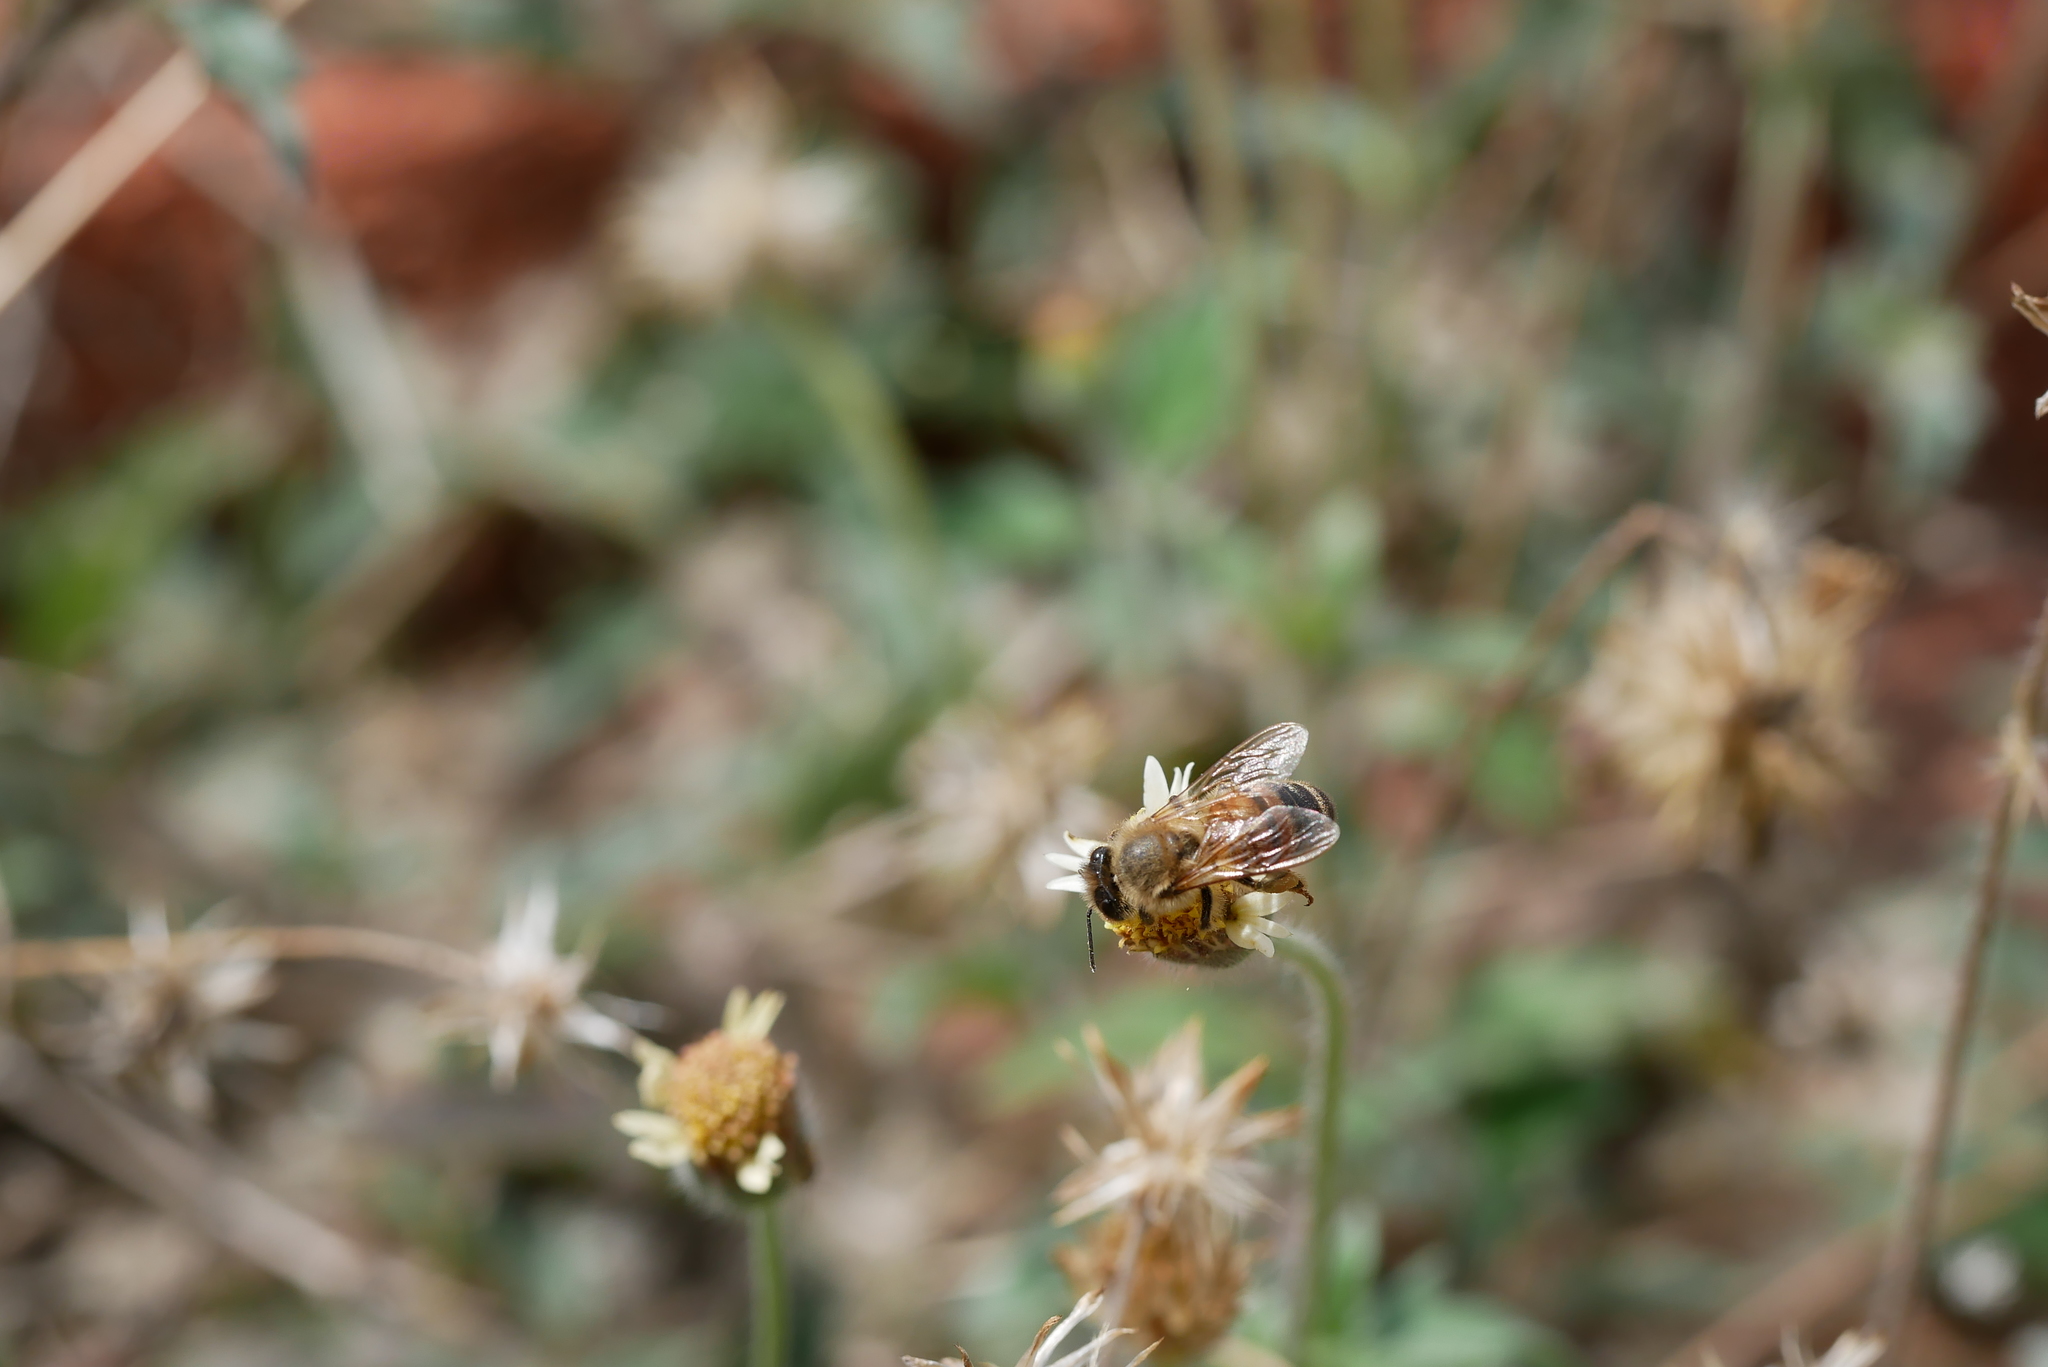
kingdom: Animalia
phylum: Arthropoda
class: Insecta
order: Hymenoptera
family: Apidae
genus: Apis
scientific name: Apis mellifera
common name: Honey bee
